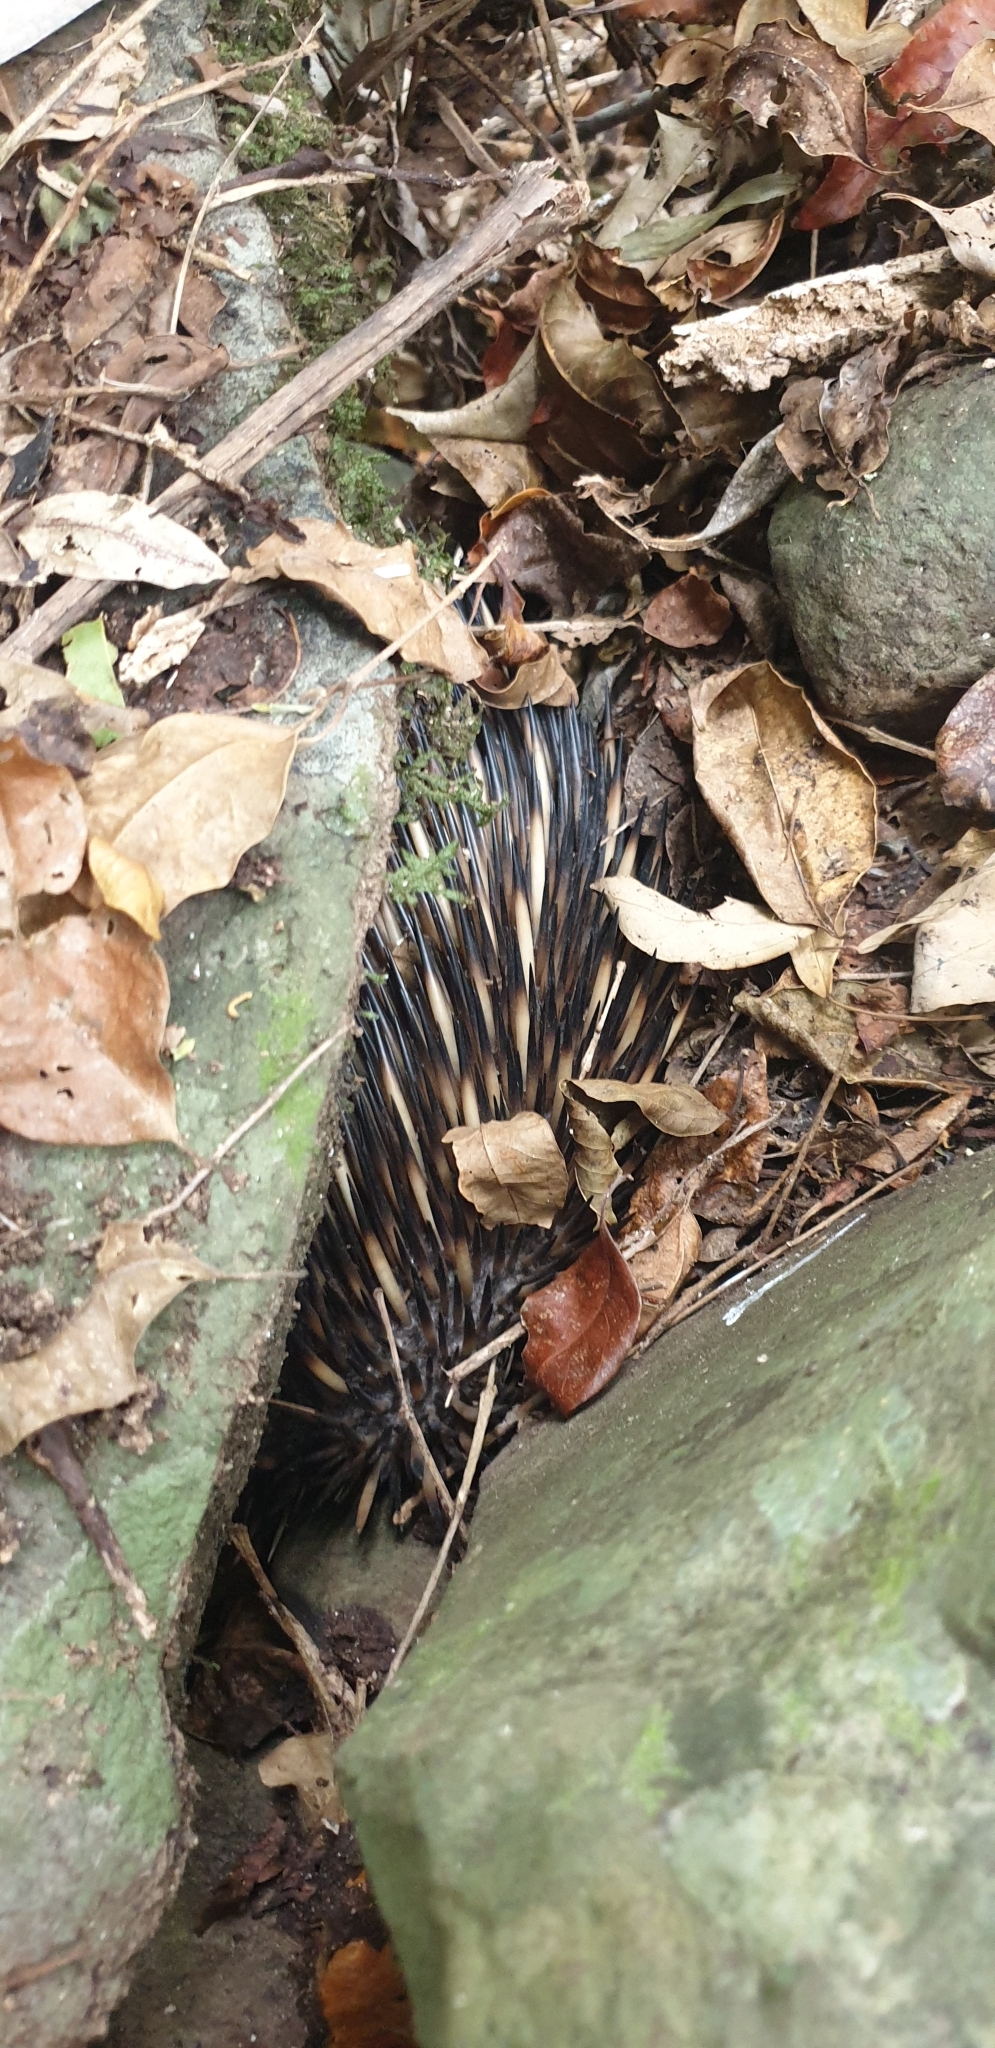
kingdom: Animalia
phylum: Chordata
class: Mammalia
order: Monotremata
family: Tachyglossidae
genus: Tachyglossus
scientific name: Tachyglossus aculeatus
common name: Short-beaked echidna
